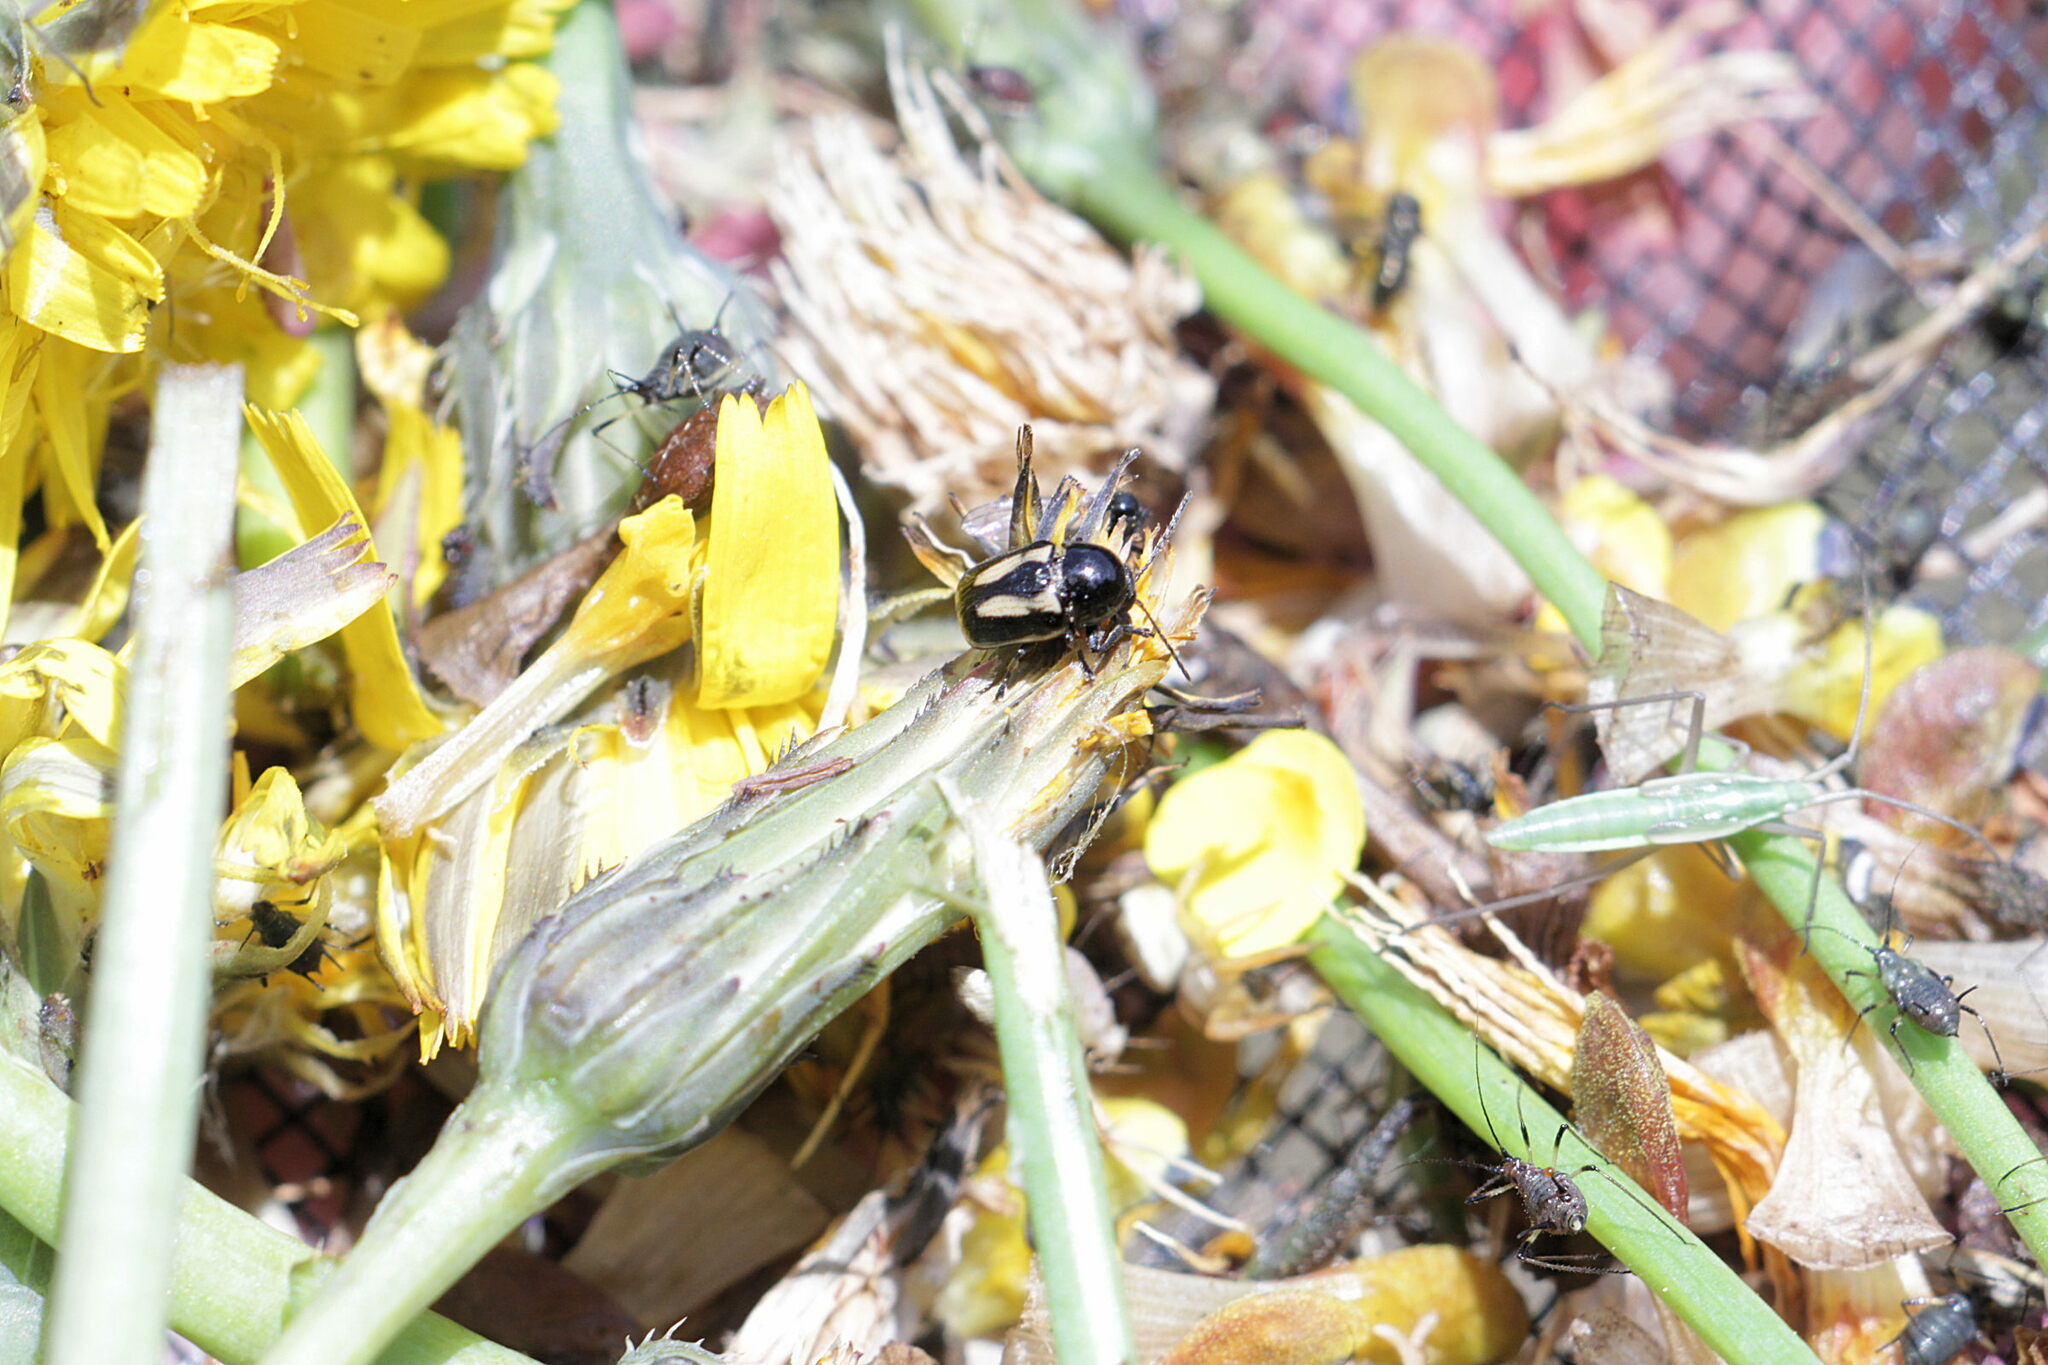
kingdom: Animalia
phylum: Arthropoda
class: Insecta
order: Coleoptera
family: Chrysomelidae
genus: Acalymma
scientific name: Acalymma vittatum
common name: Striped cucumber beetle
